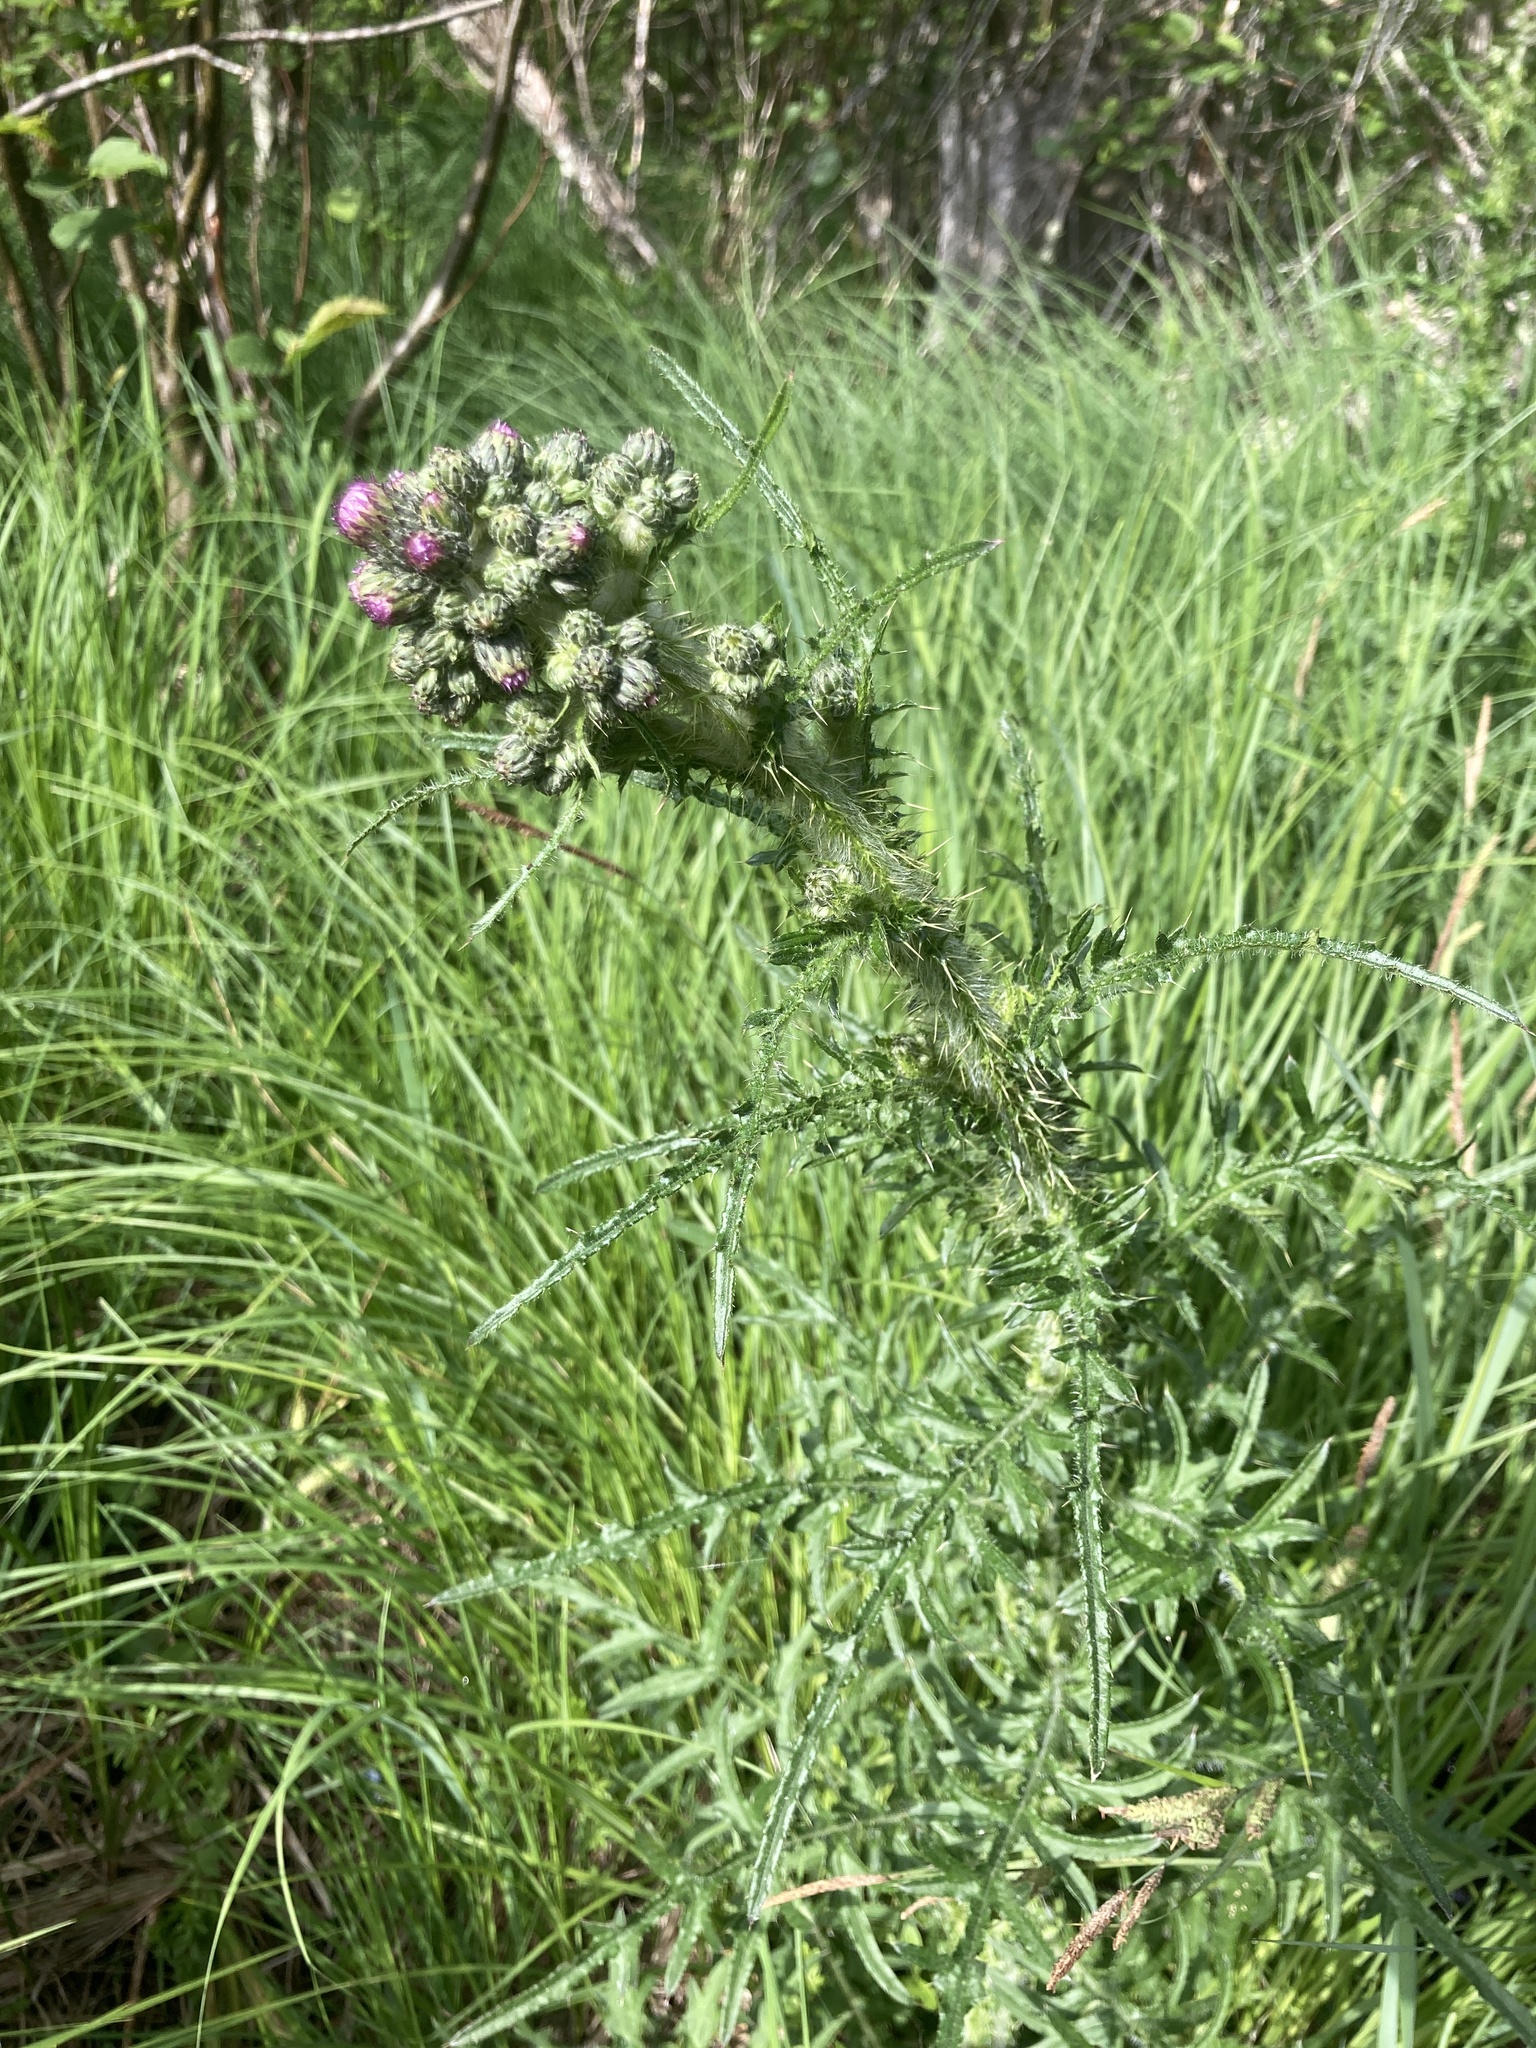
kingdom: Plantae
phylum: Tracheophyta
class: Magnoliopsida
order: Asterales
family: Asteraceae
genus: Cirsium
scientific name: Cirsium palustre
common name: Marsh thistle
